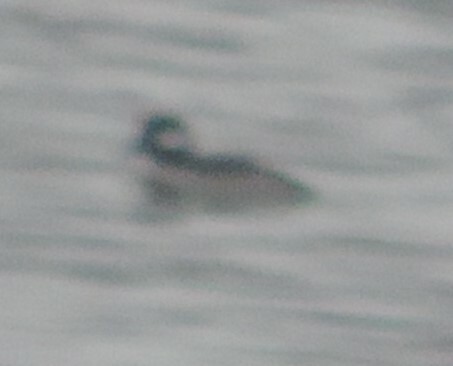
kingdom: Animalia
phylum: Chordata
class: Aves
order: Anseriformes
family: Anatidae
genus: Bucephala
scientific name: Bucephala albeola
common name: Bufflehead
